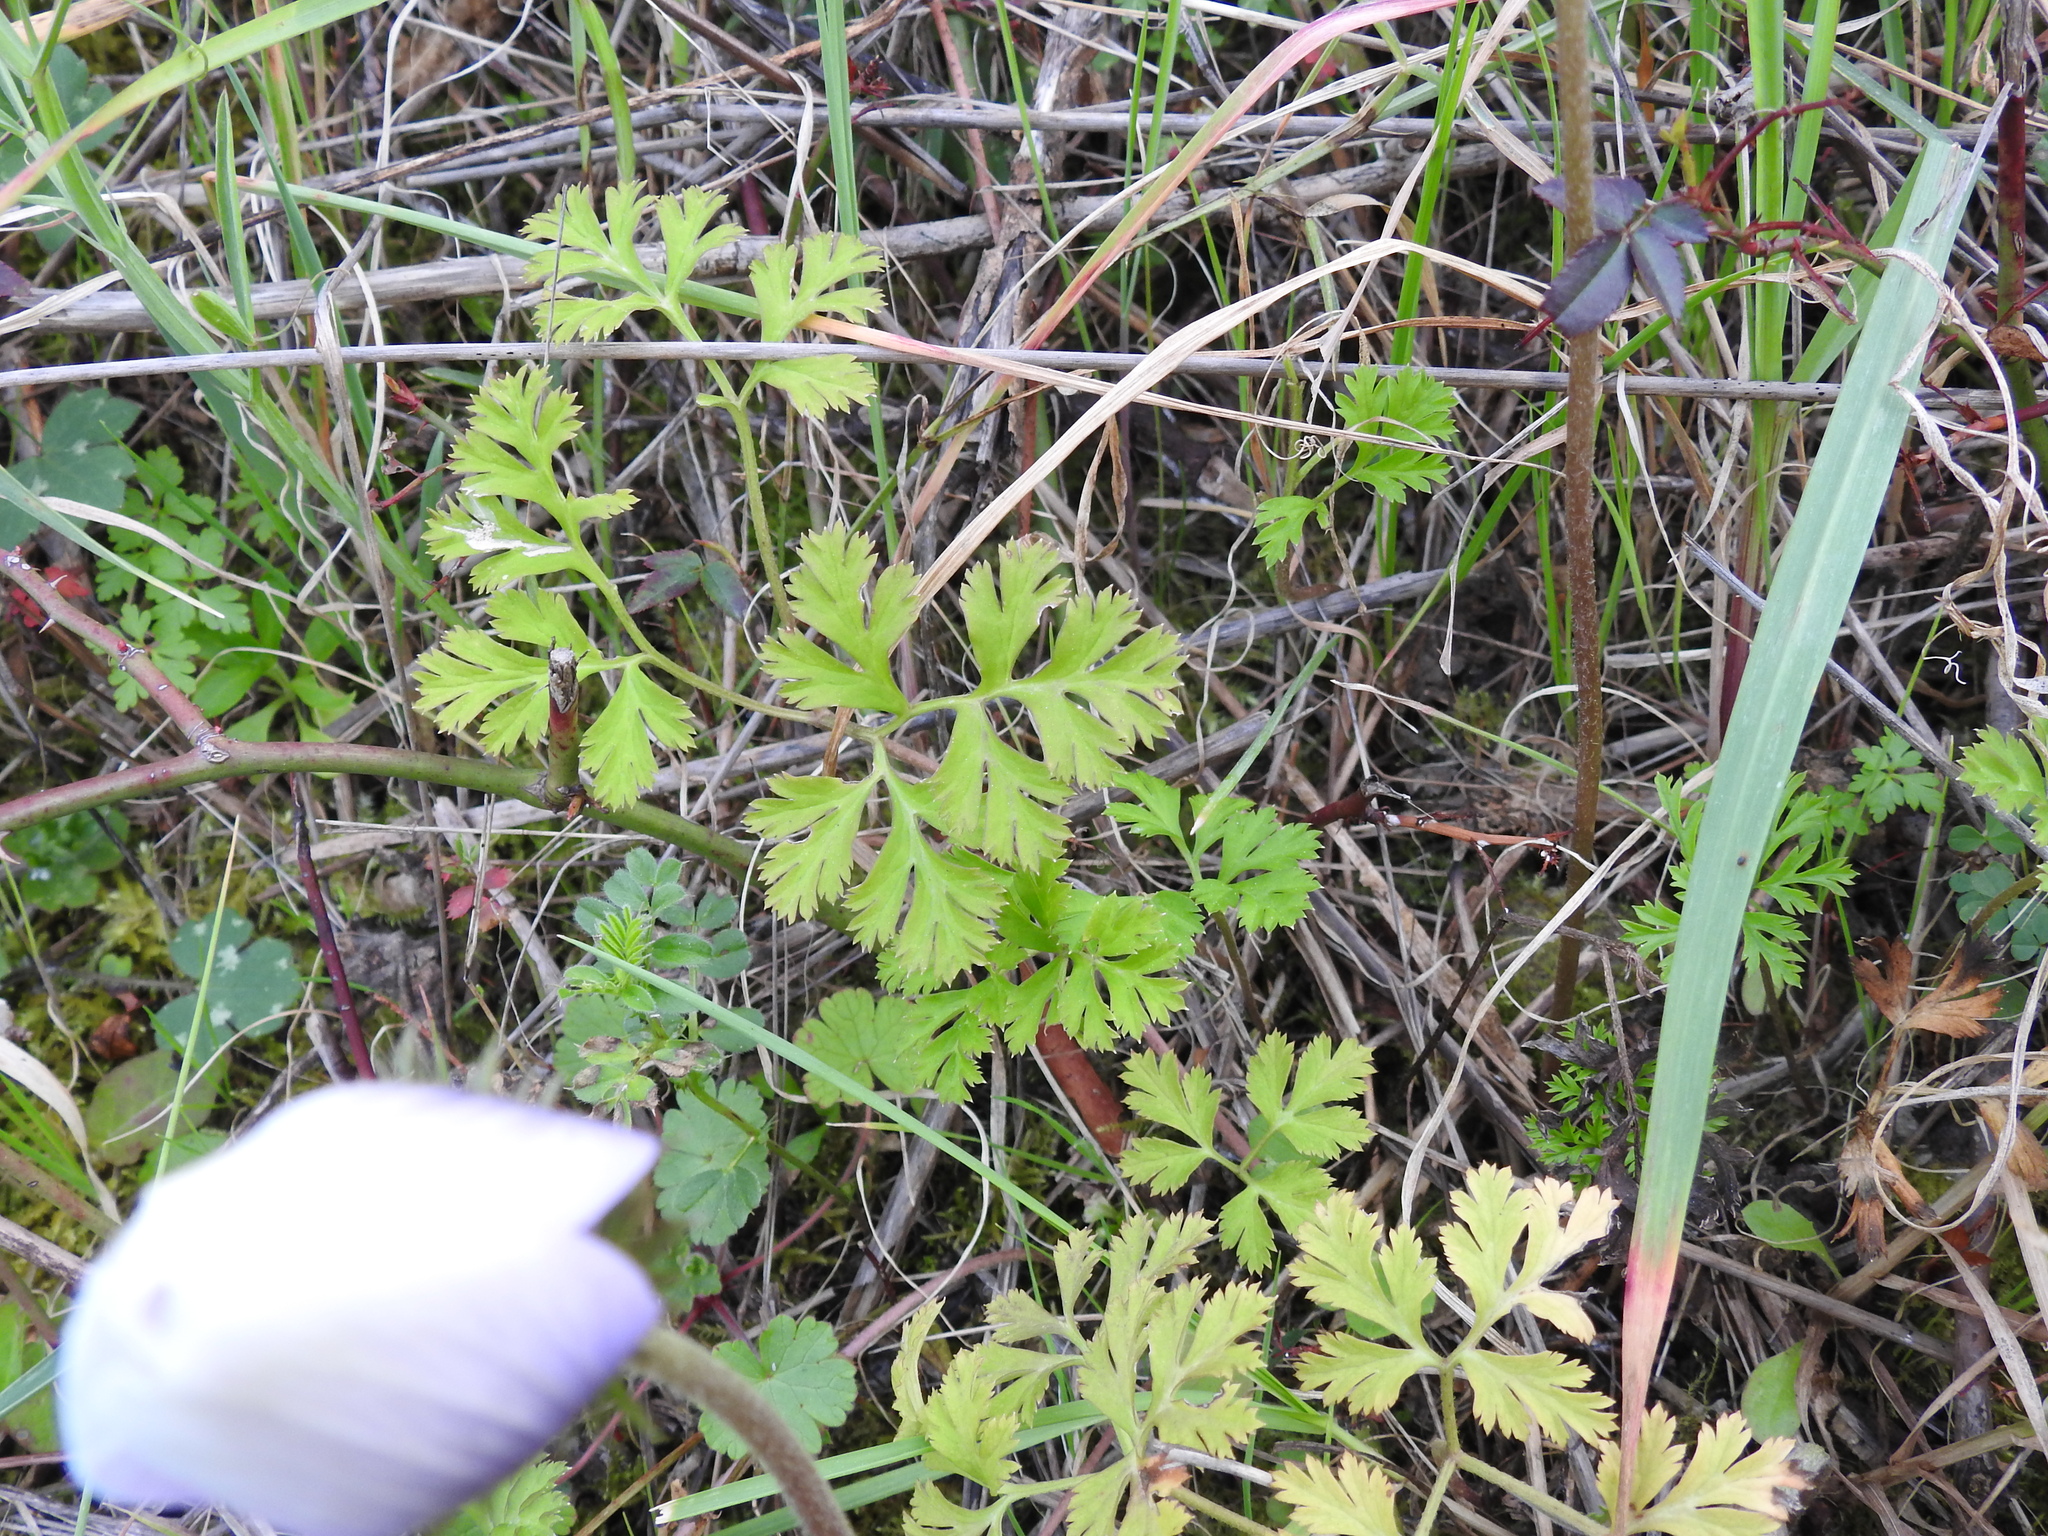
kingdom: Plantae
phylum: Tracheophyta
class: Magnoliopsida
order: Ranunculales
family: Ranunculaceae
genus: Anemone
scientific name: Anemone coronaria
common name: Poppy anemone
